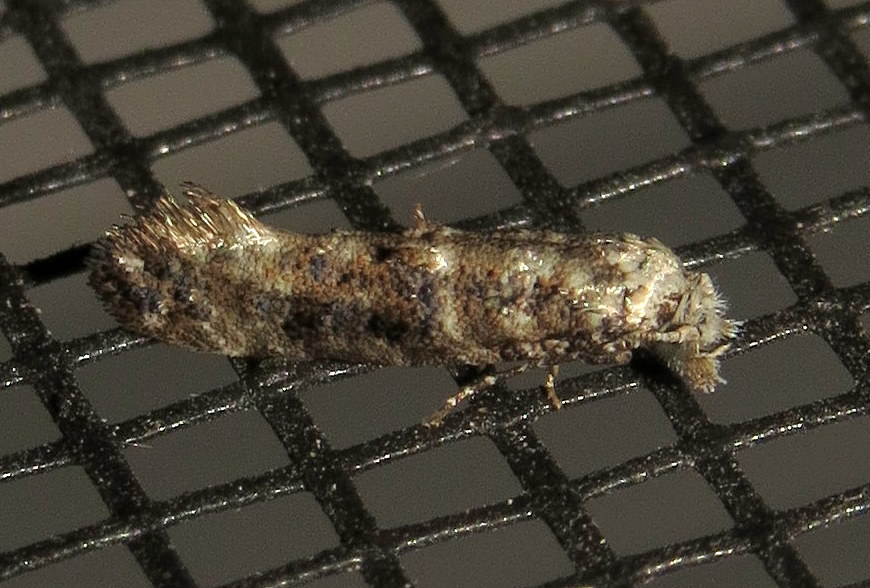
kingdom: Animalia
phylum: Arthropoda
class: Insecta
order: Lepidoptera
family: Tineidae
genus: Xylesthia
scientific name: Xylesthia pruniramiella
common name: Clemens' bark moth
